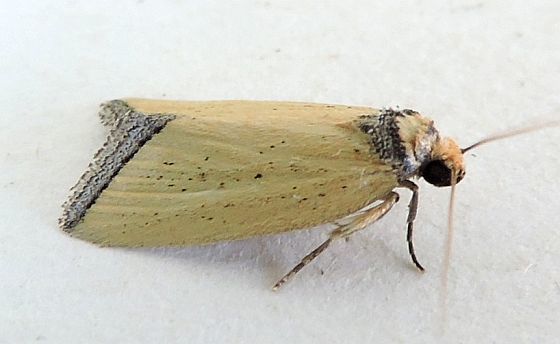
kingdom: Animalia
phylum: Arthropoda
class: Insecta
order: Lepidoptera
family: Noctuidae
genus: Pseudomarimatha
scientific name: Pseudomarimatha flava
